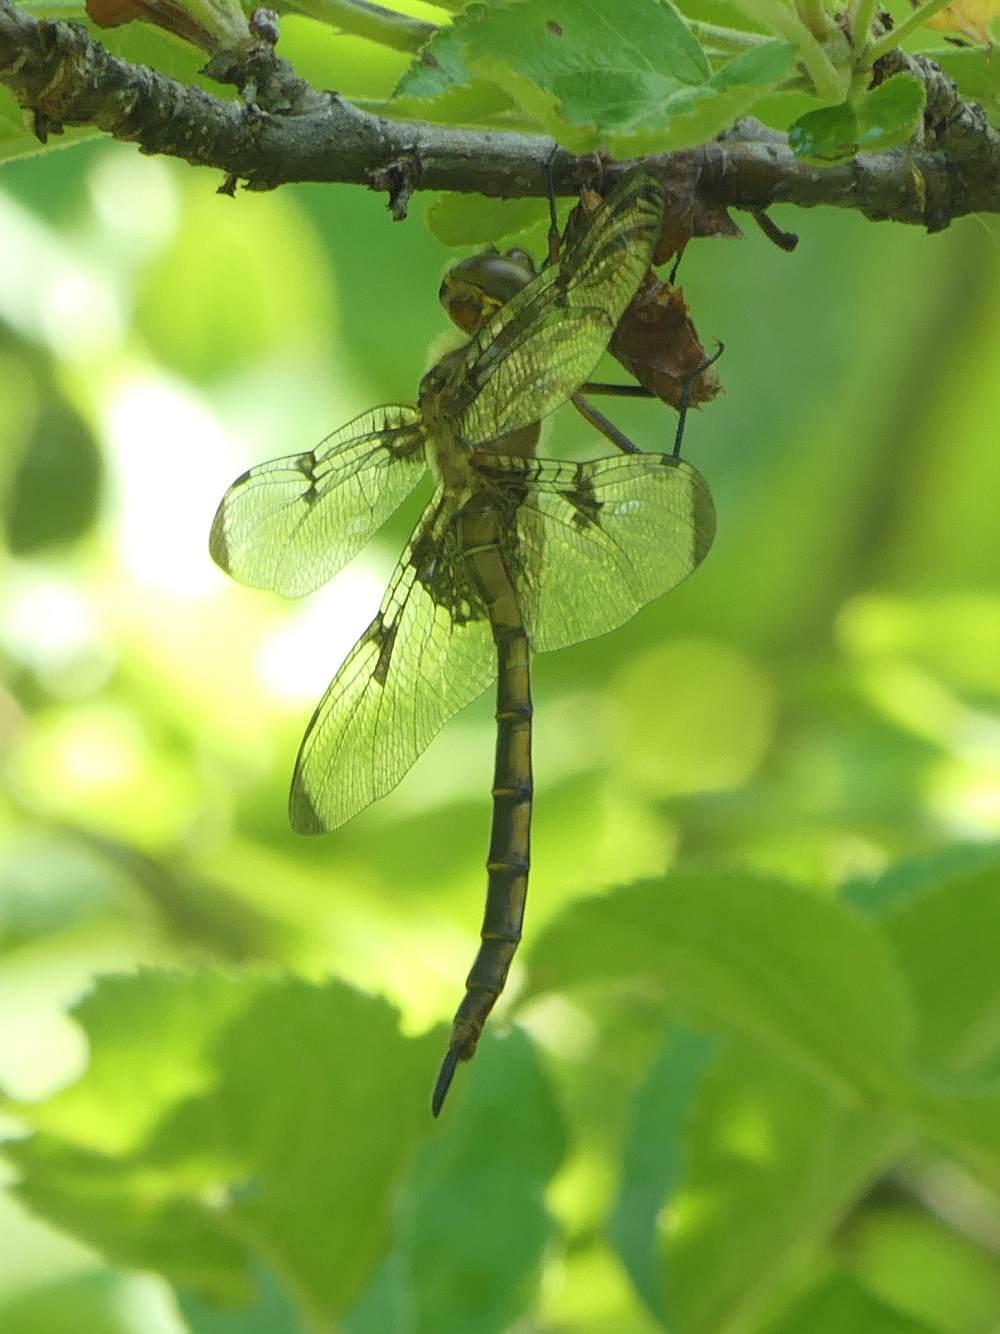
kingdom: Animalia
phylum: Arthropoda
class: Insecta
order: Odonata
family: Corduliidae
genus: Epitheca
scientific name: Epitheca princeps
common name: Prince baskettail
